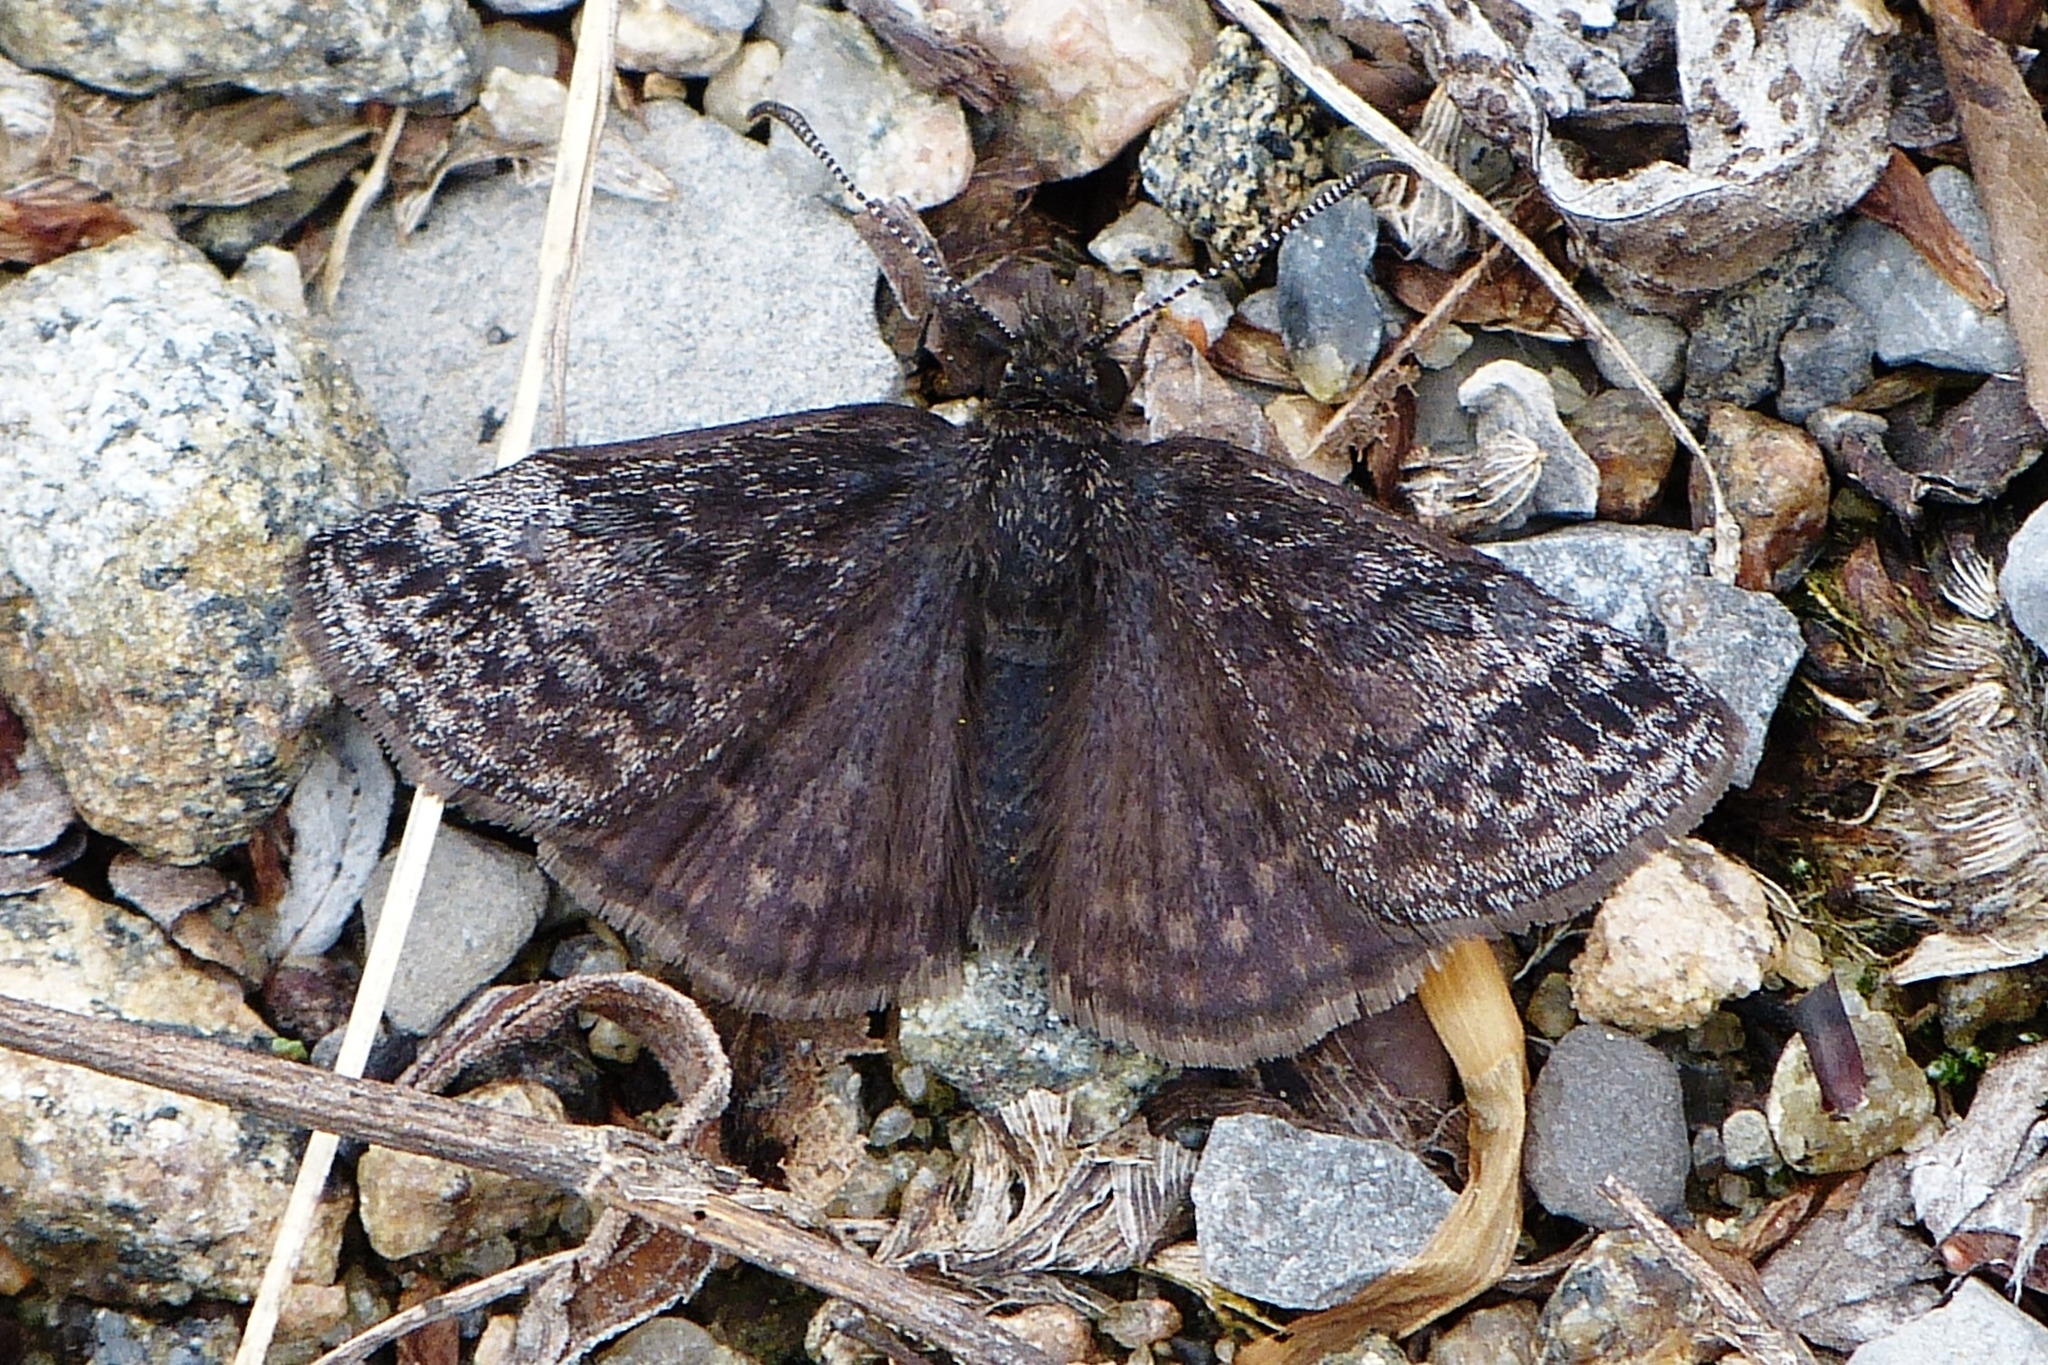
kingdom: Animalia
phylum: Arthropoda
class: Insecta
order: Lepidoptera
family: Hesperiidae
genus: Erynnis
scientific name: Erynnis icelus
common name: Dreamy duskywing
